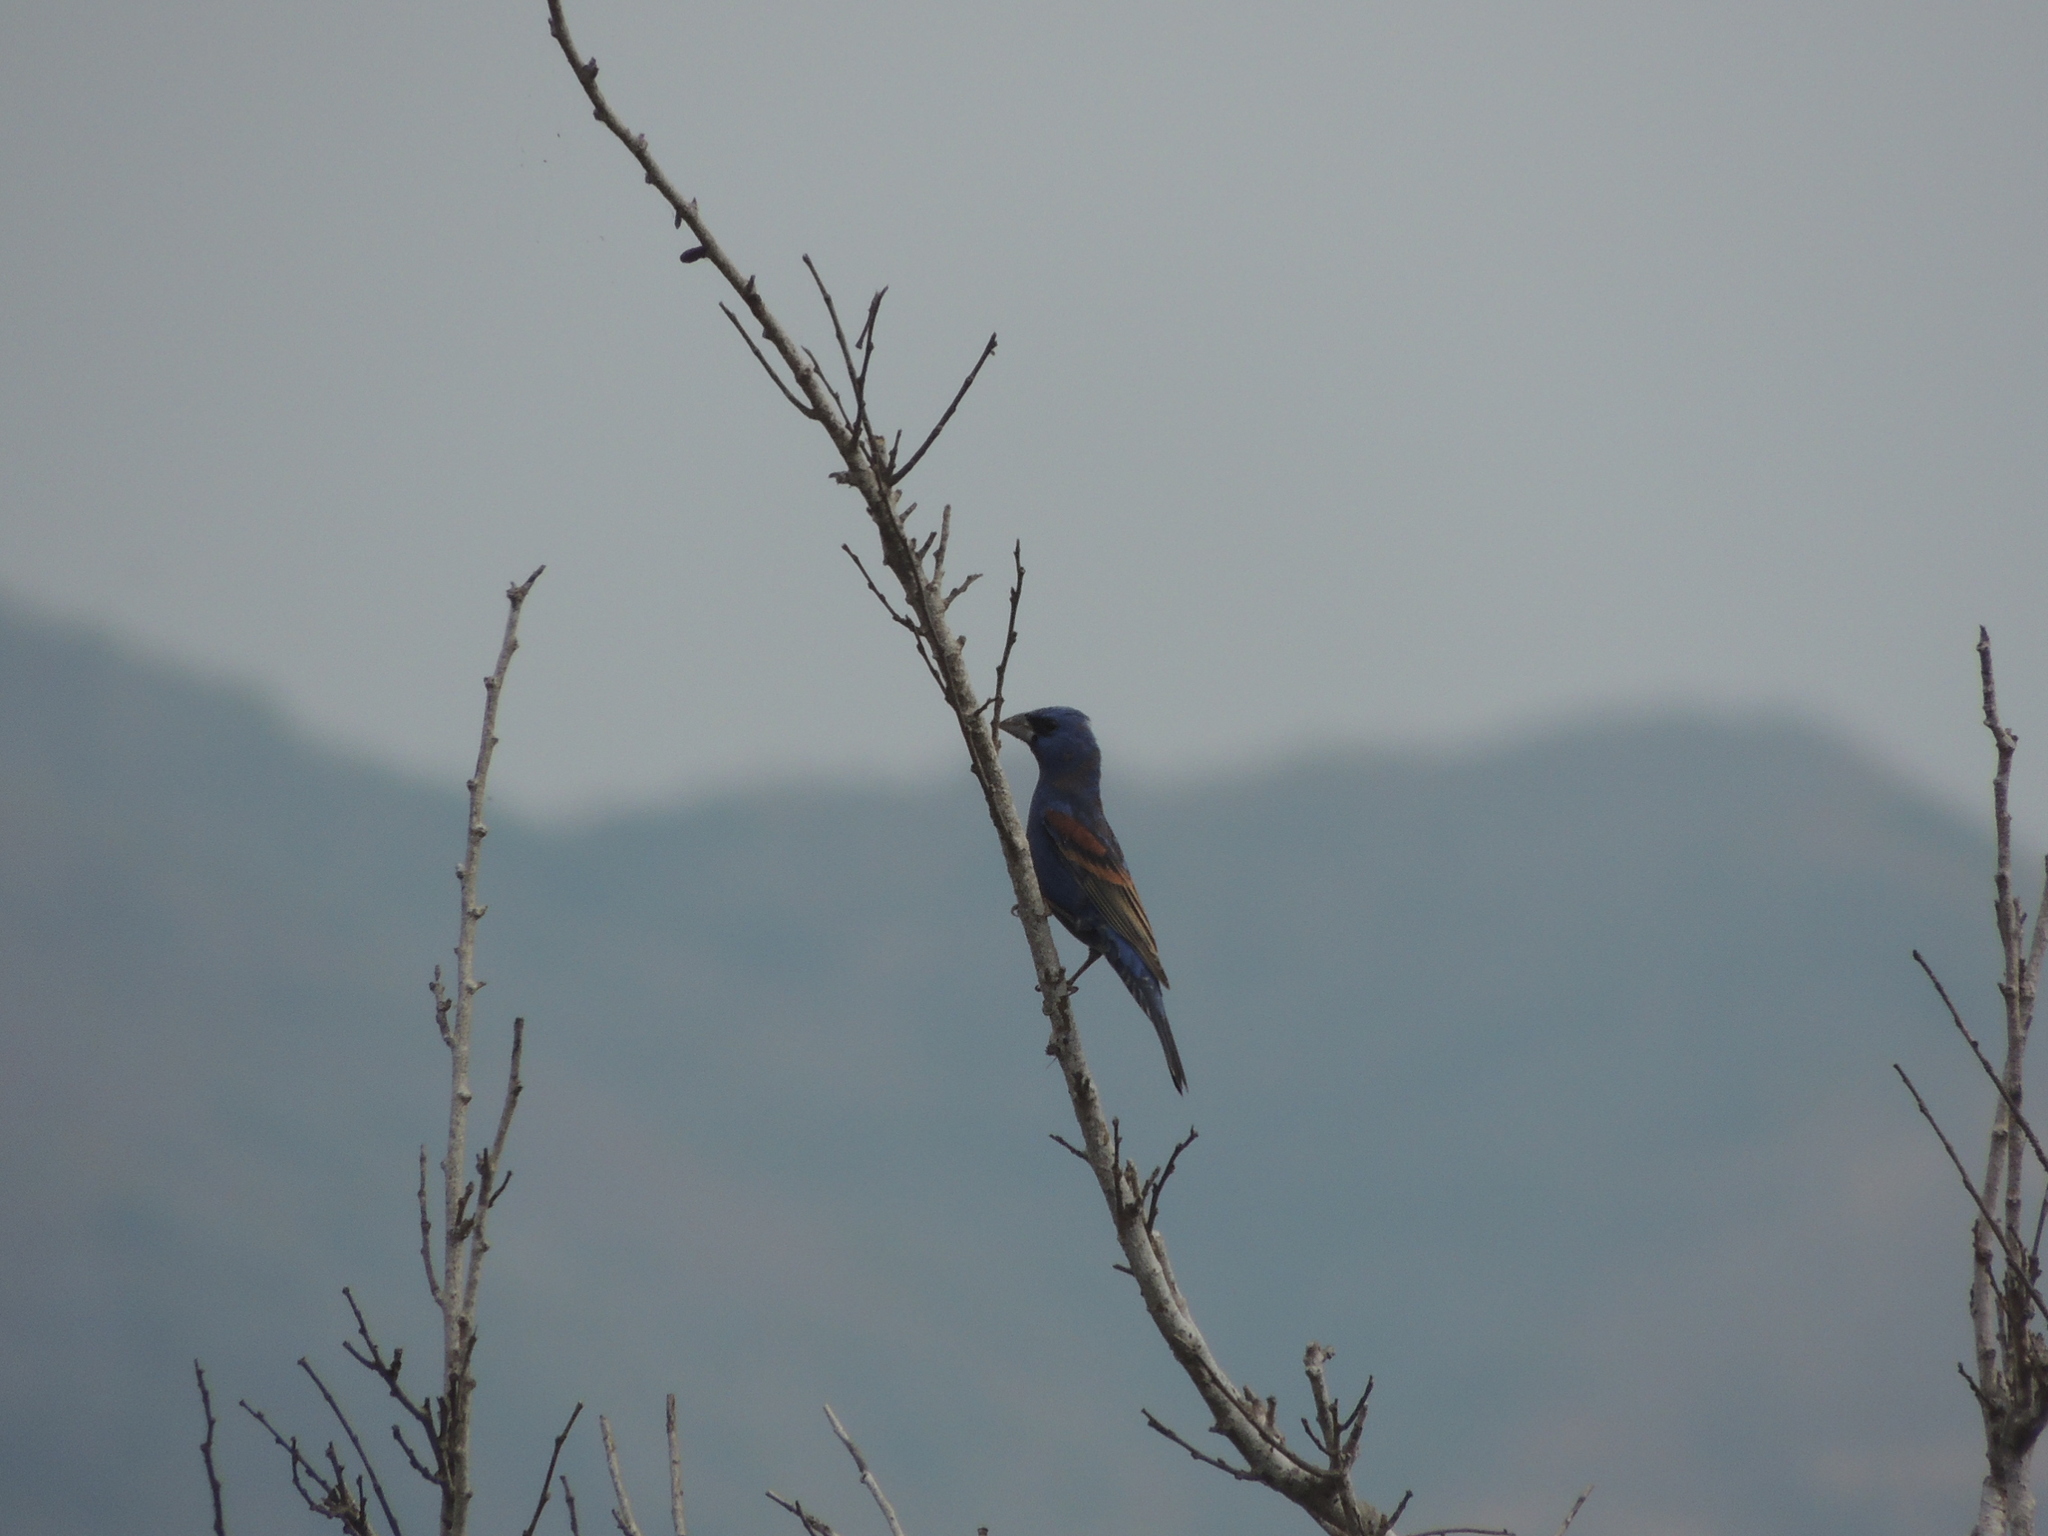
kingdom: Animalia
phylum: Chordata
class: Aves
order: Passeriformes
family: Cardinalidae
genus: Passerina
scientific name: Passerina caerulea
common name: Blue grosbeak
